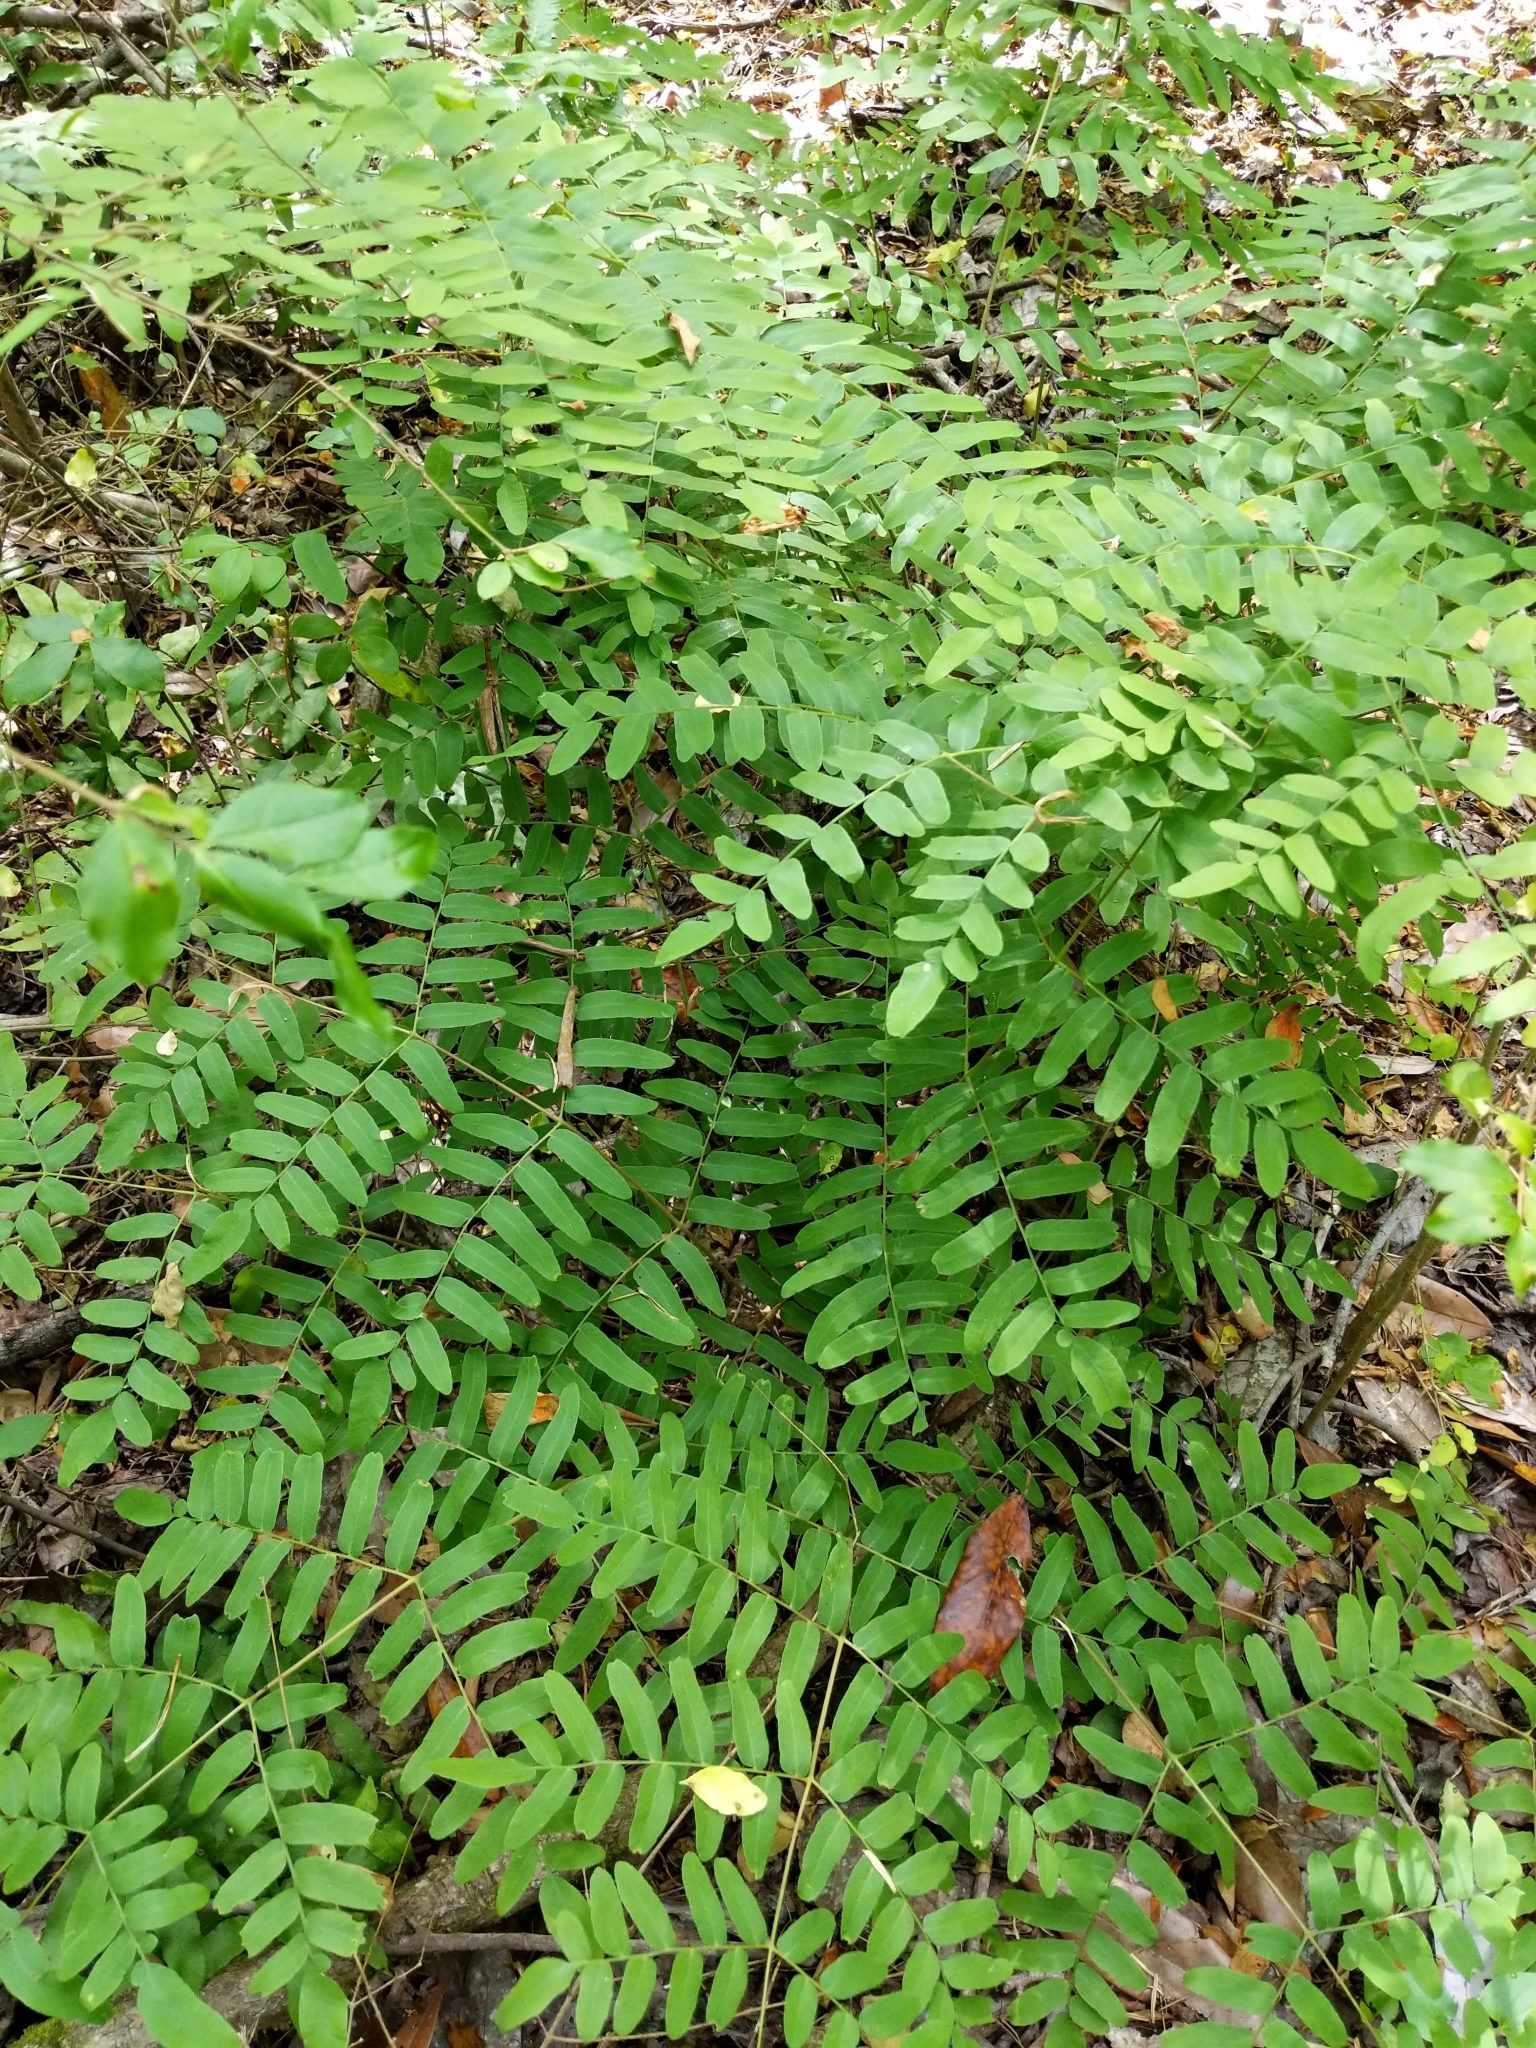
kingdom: Plantae
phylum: Tracheophyta
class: Polypodiopsida
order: Osmundales
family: Osmundaceae
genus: Osmunda
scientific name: Osmunda spectabilis
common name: American royal fern
